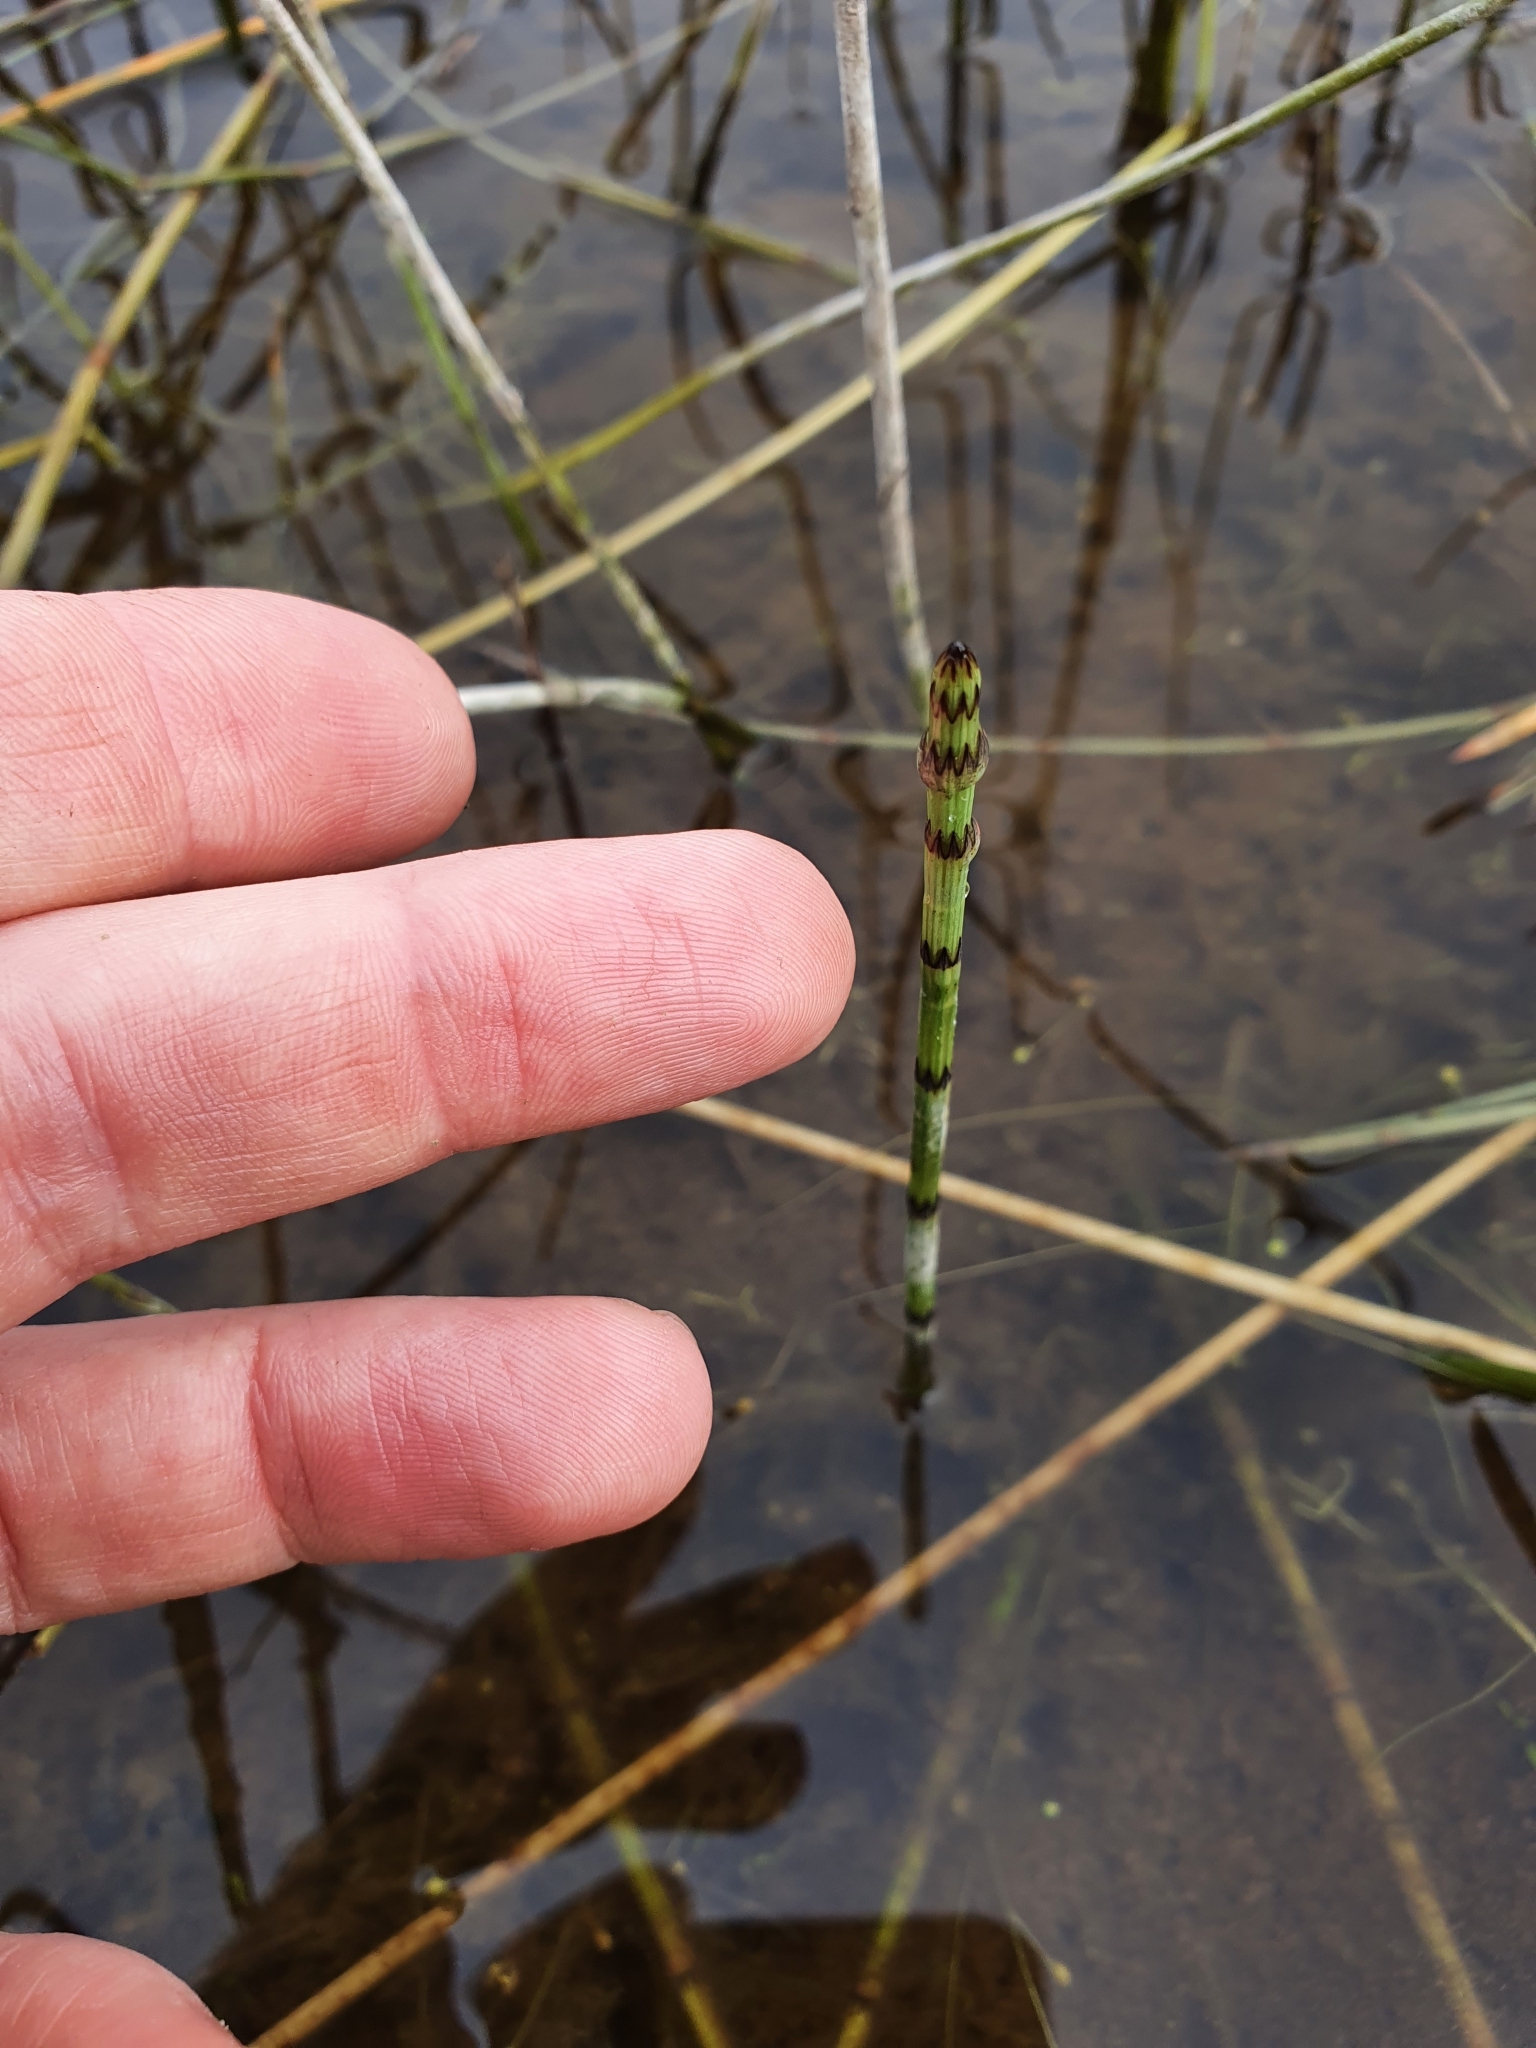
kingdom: Plantae
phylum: Tracheophyta
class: Polypodiopsida
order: Equisetales
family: Equisetaceae
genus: Equisetum
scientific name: Equisetum fluviatile
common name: Water horsetail
